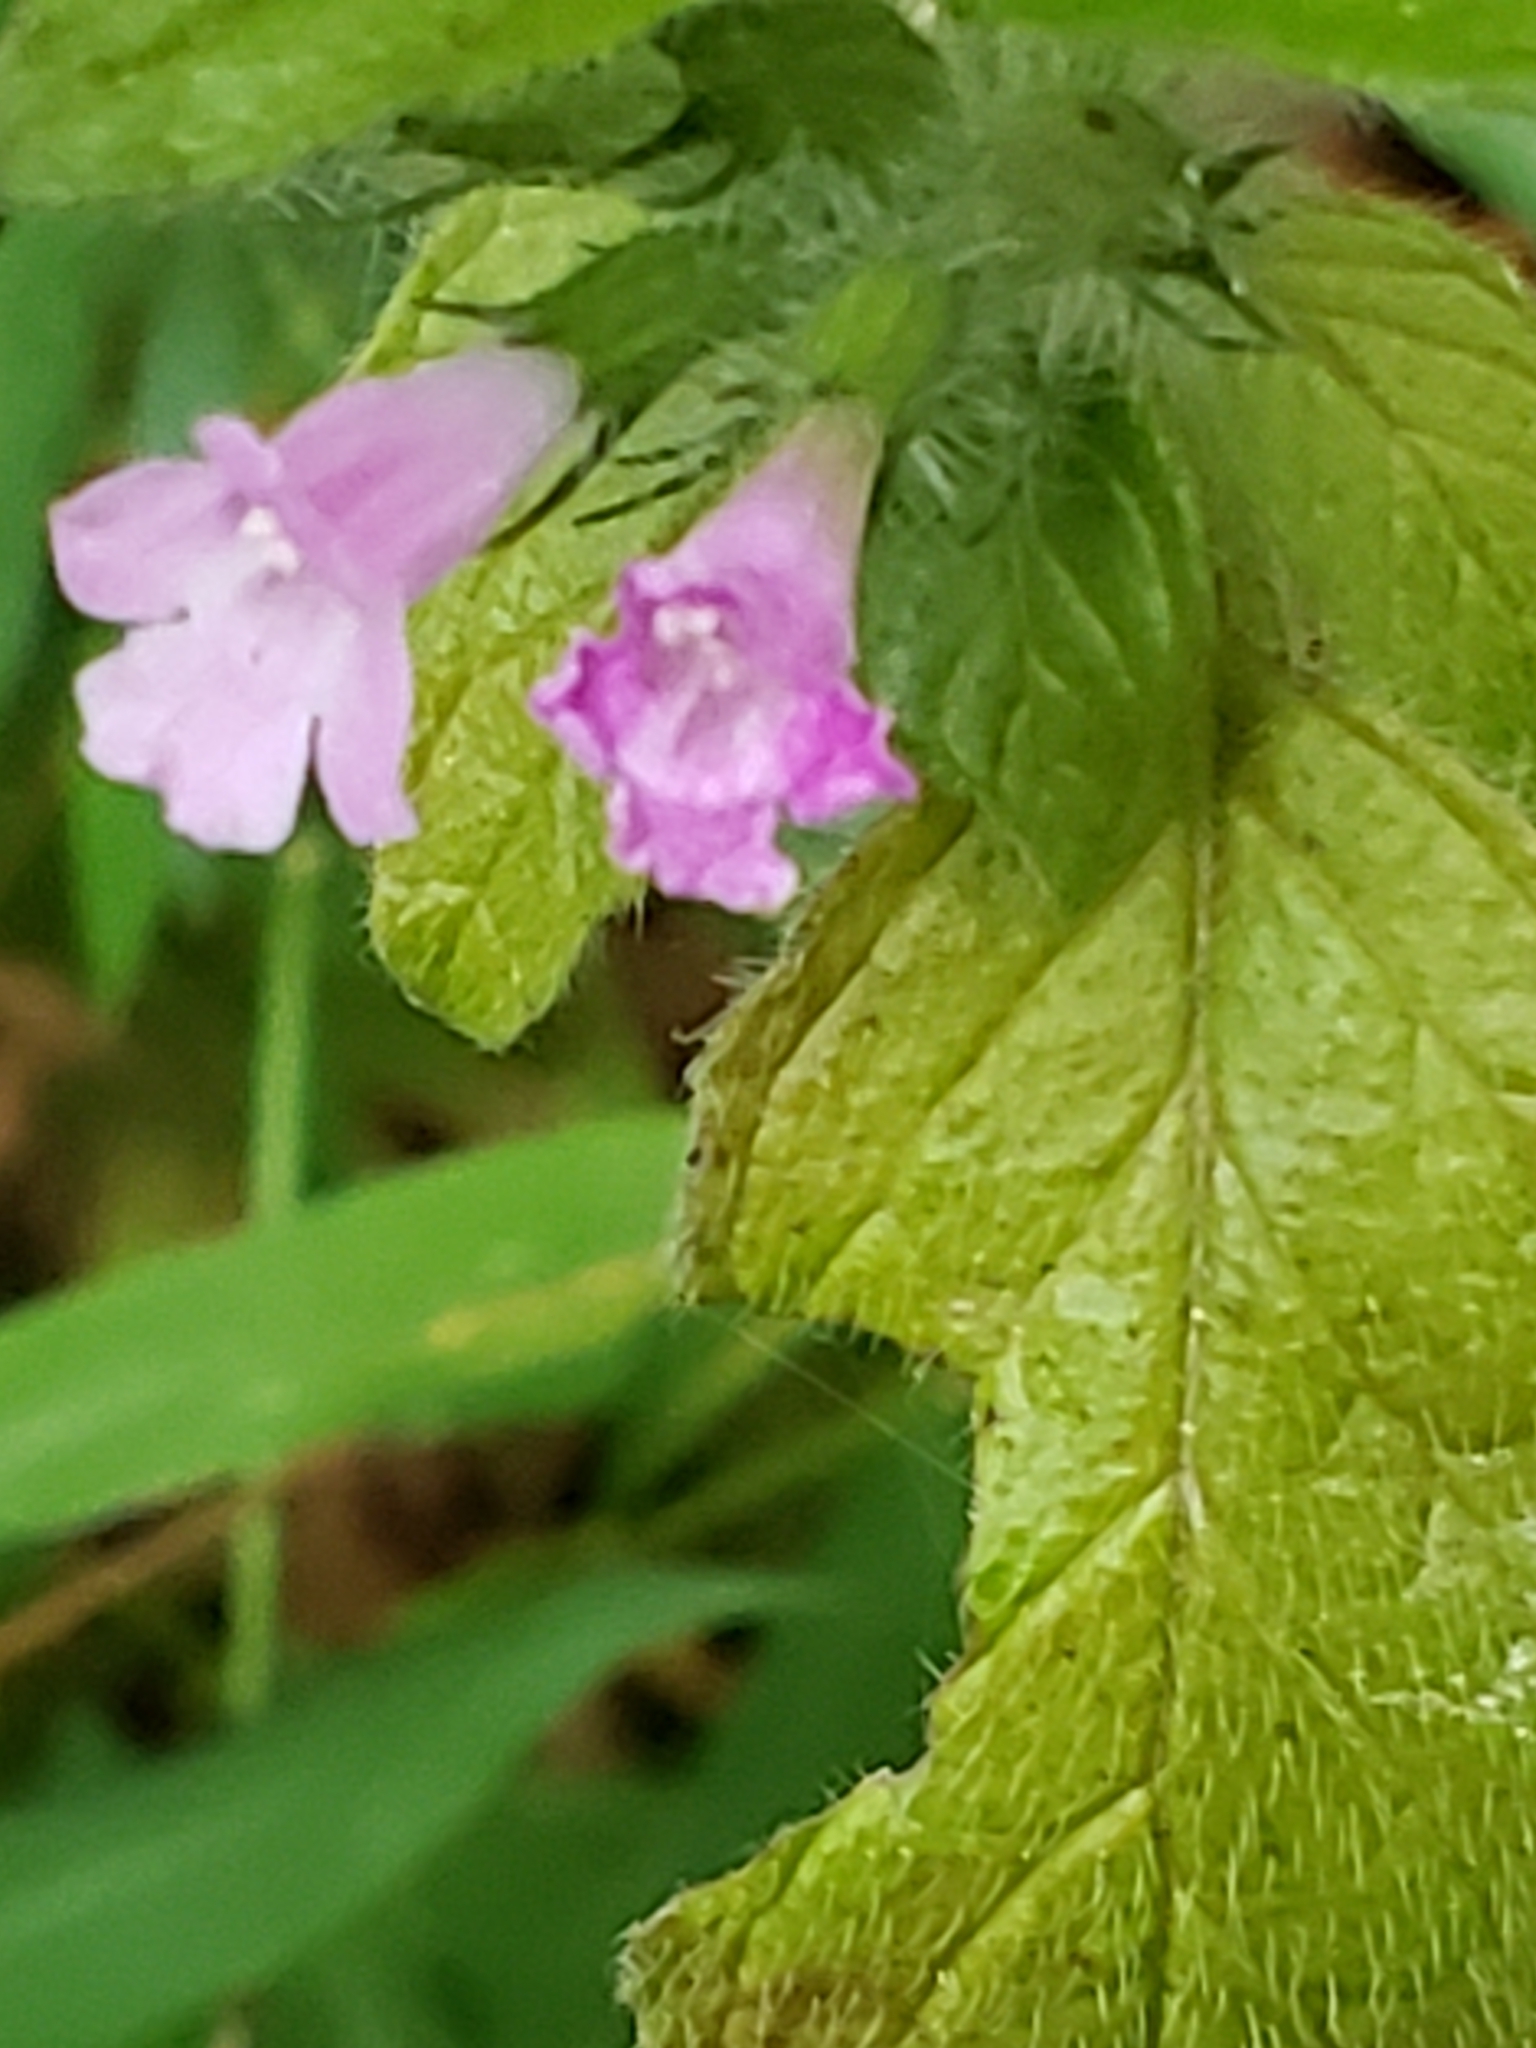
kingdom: Plantae
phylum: Tracheophyta
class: Magnoliopsida
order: Lamiales
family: Lamiaceae
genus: Clinopodium
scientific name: Clinopodium vulgare
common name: Wild basil
